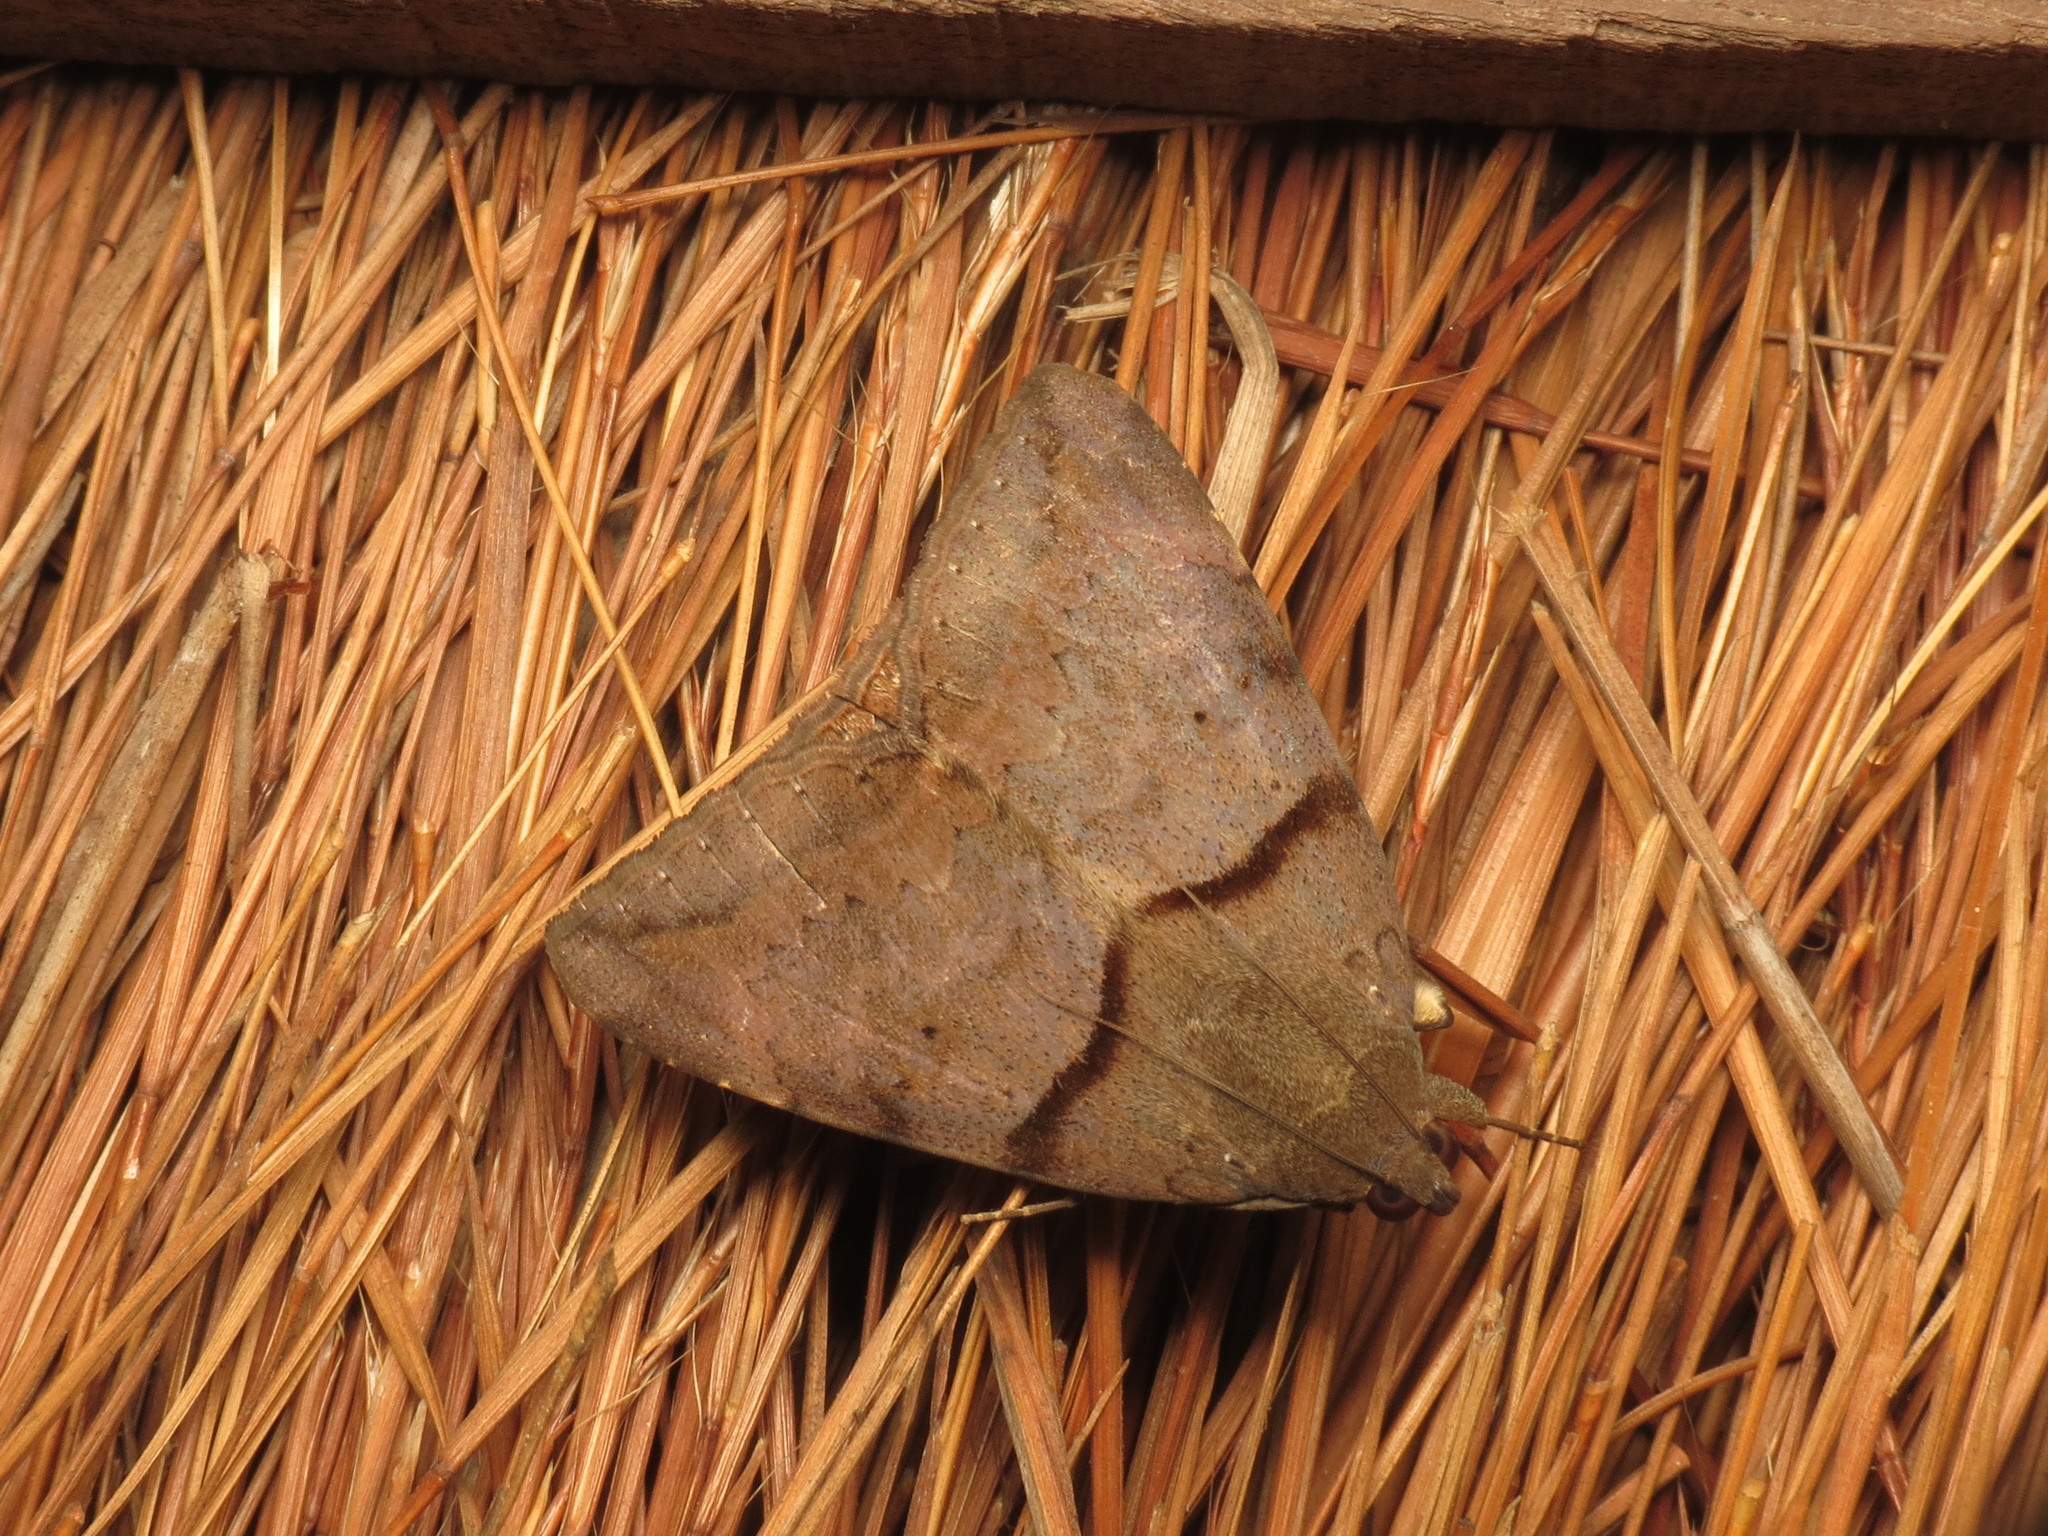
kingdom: Animalia
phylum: Arthropoda
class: Insecta
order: Lepidoptera
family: Erebidae
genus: Achaea
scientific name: Achaea lienardi
